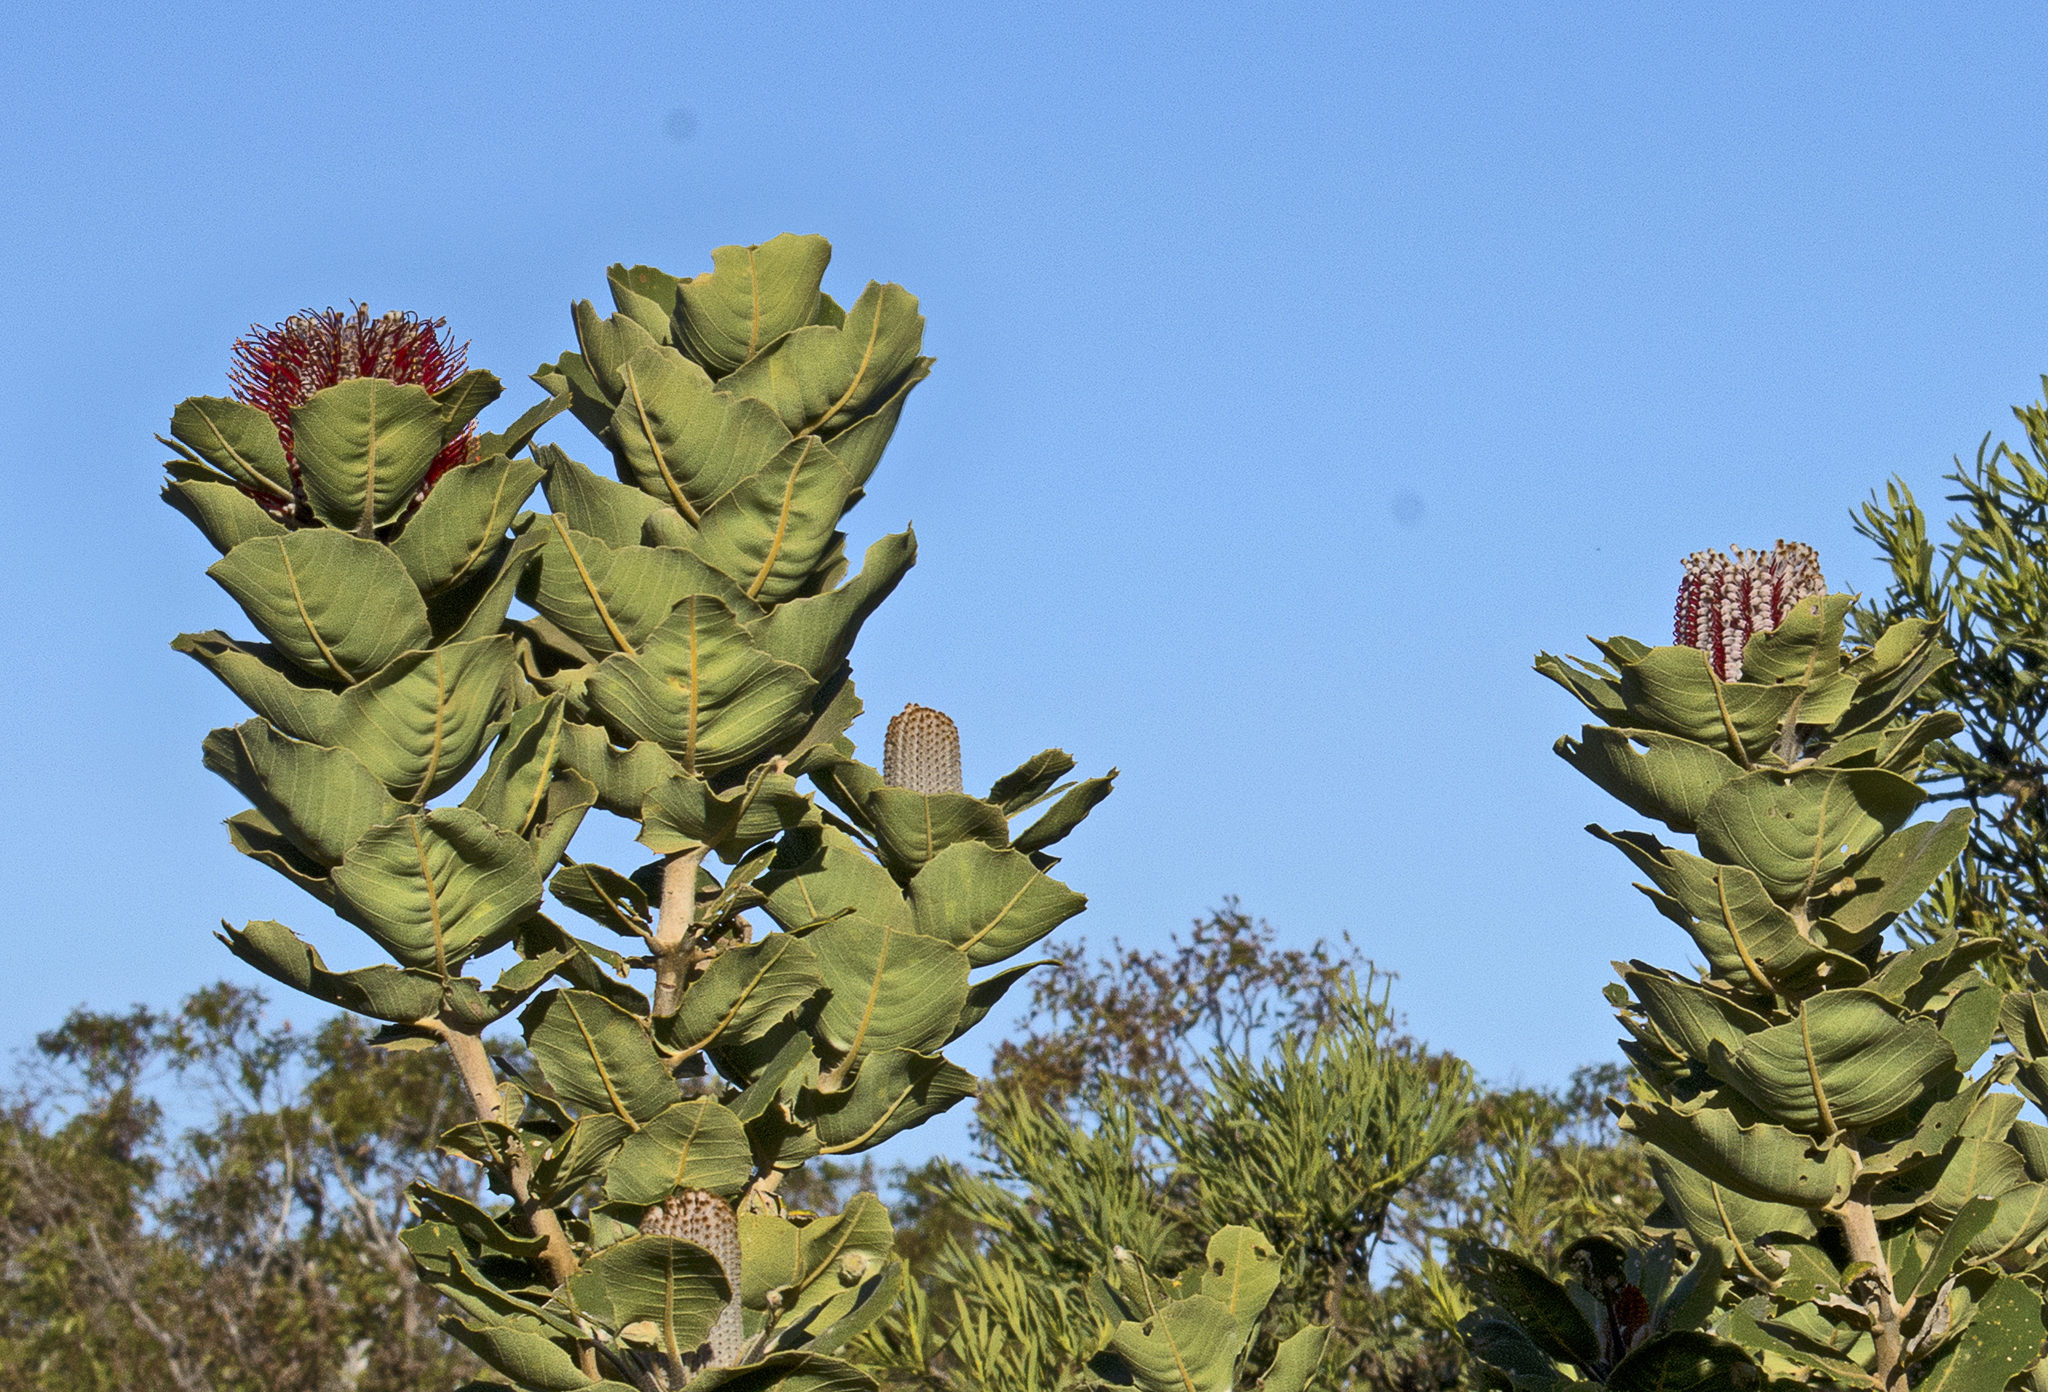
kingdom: Plantae
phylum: Tracheophyta
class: Magnoliopsida
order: Proteales
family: Proteaceae
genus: Banksia
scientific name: Banksia coccinea
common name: Scarlet banksia
